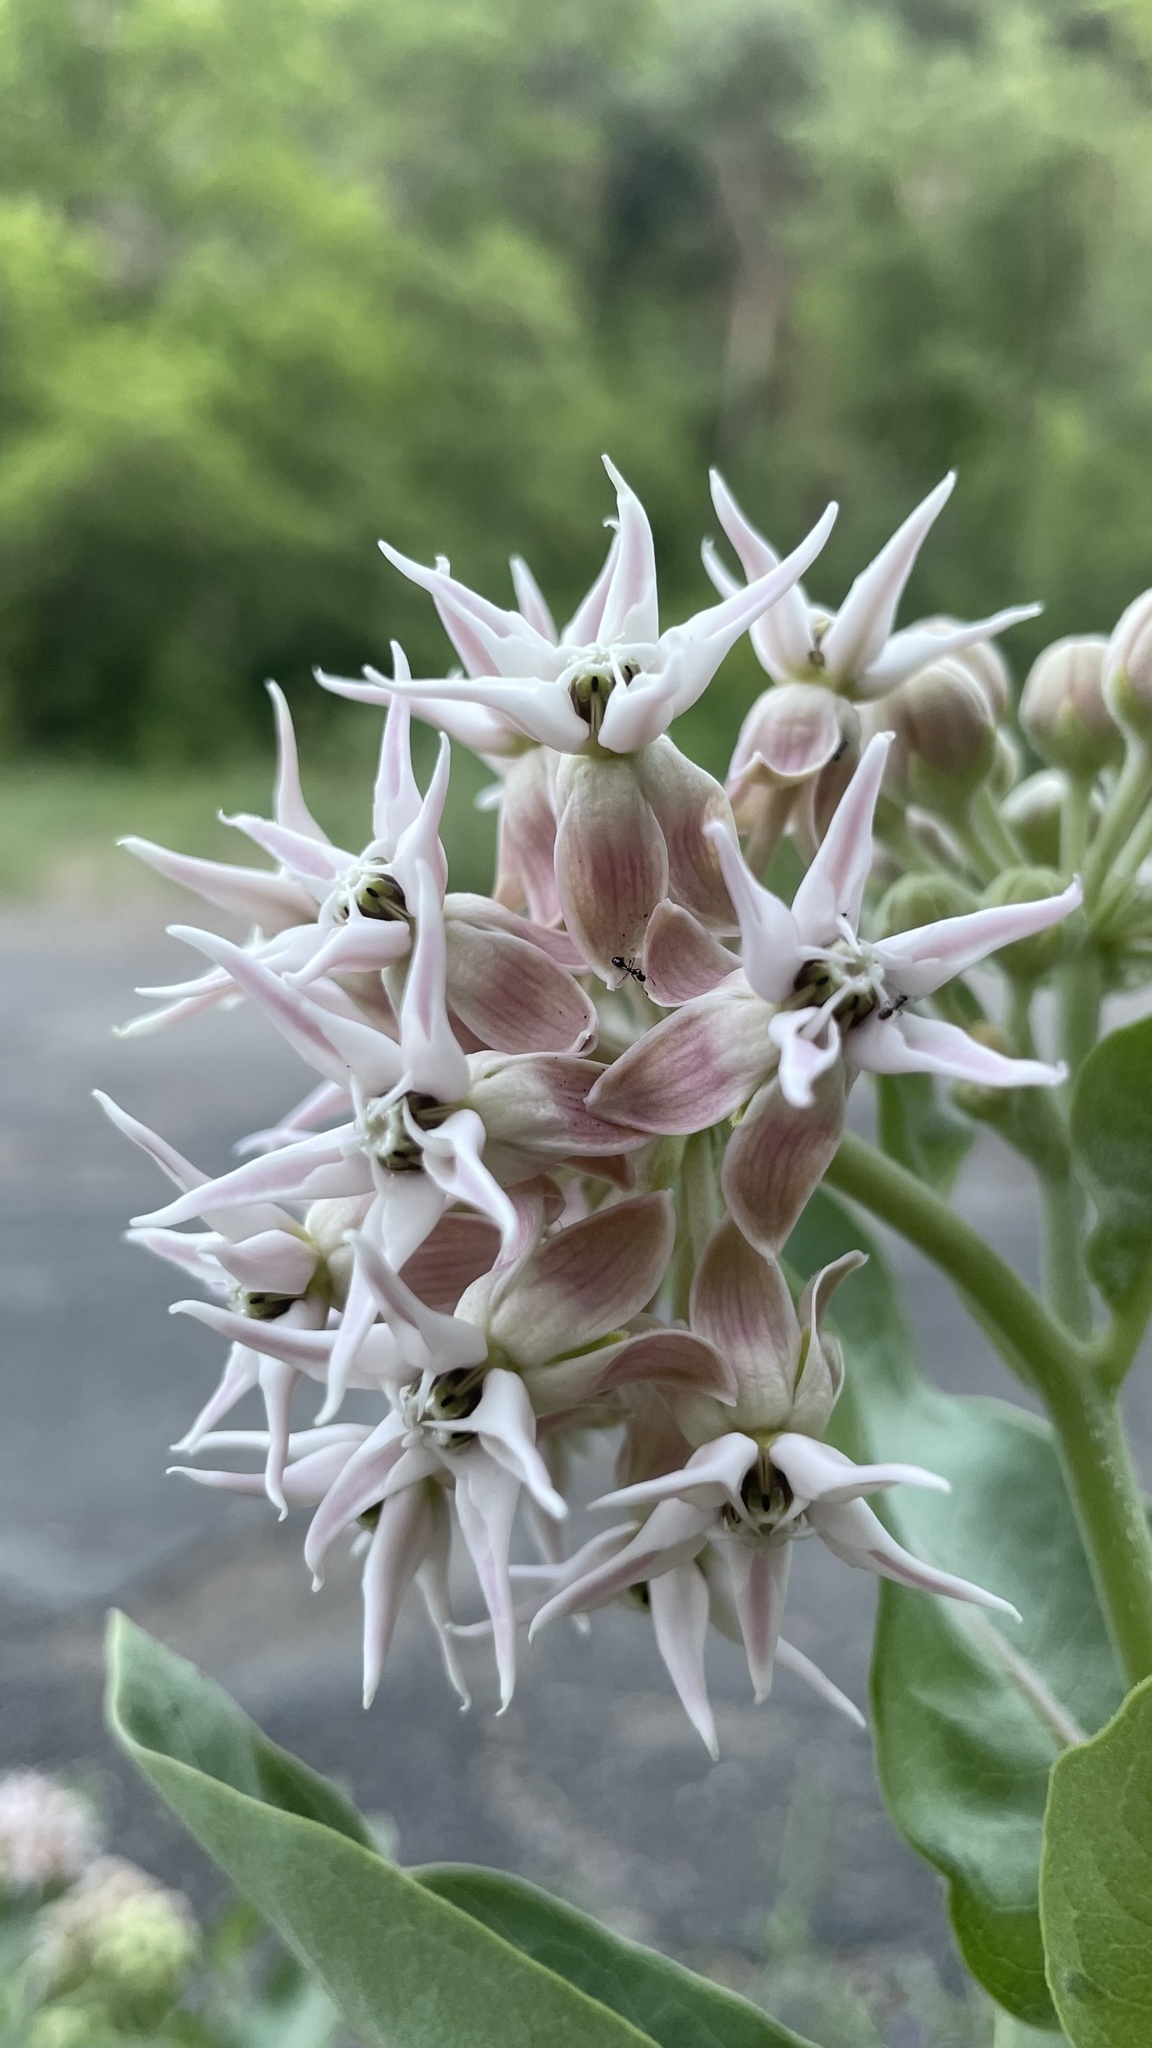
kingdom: Plantae
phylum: Tracheophyta
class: Magnoliopsida
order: Gentianales
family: Apocynaceae
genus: Asclepias
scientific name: Asclepias speciosa
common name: Showy milkweed
